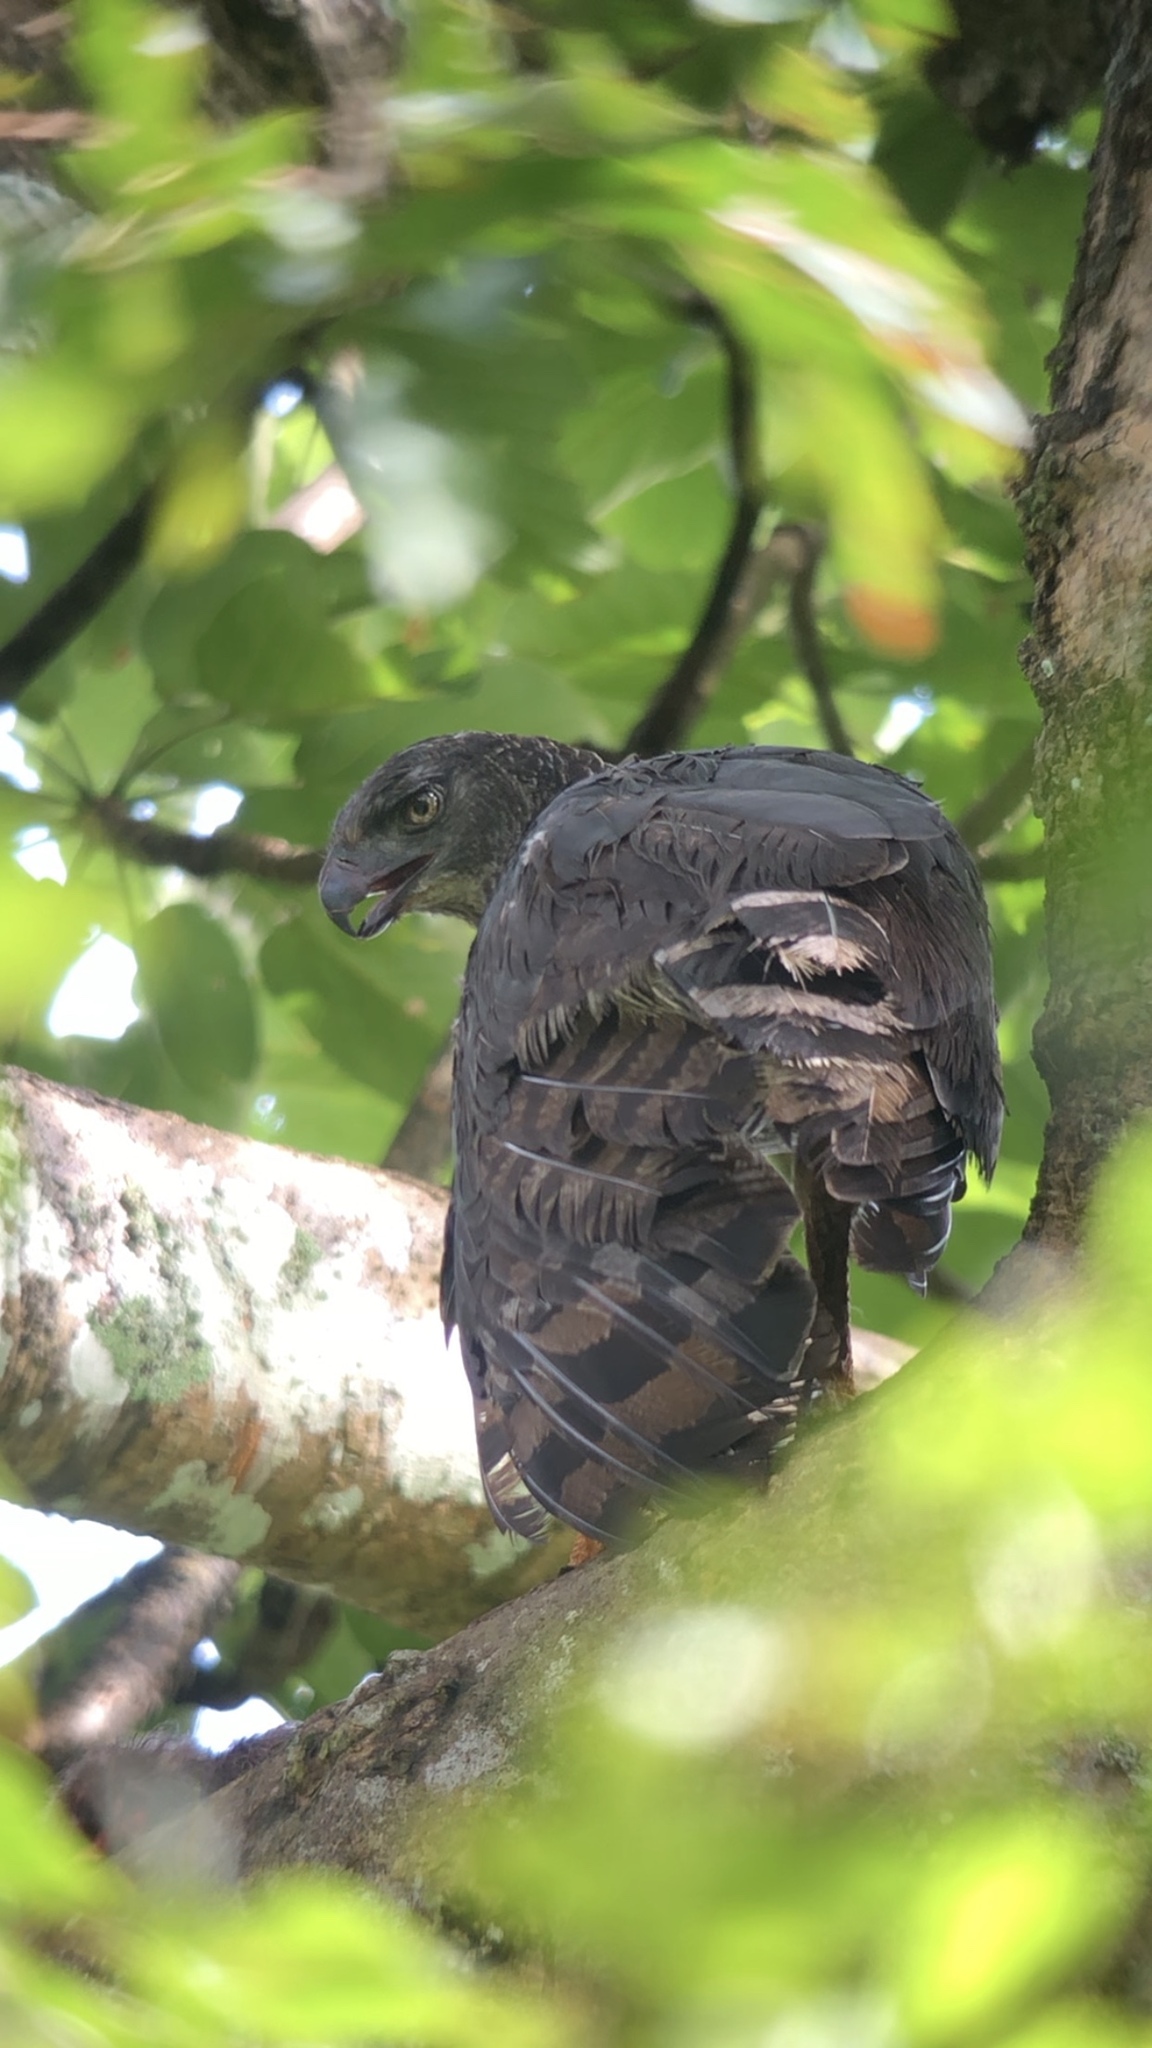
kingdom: Animalia
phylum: Chordata
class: Aves
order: Accipitriformes
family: Accipitridae
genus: Morphnus
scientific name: Morphnus guianensis
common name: Crested eagle
